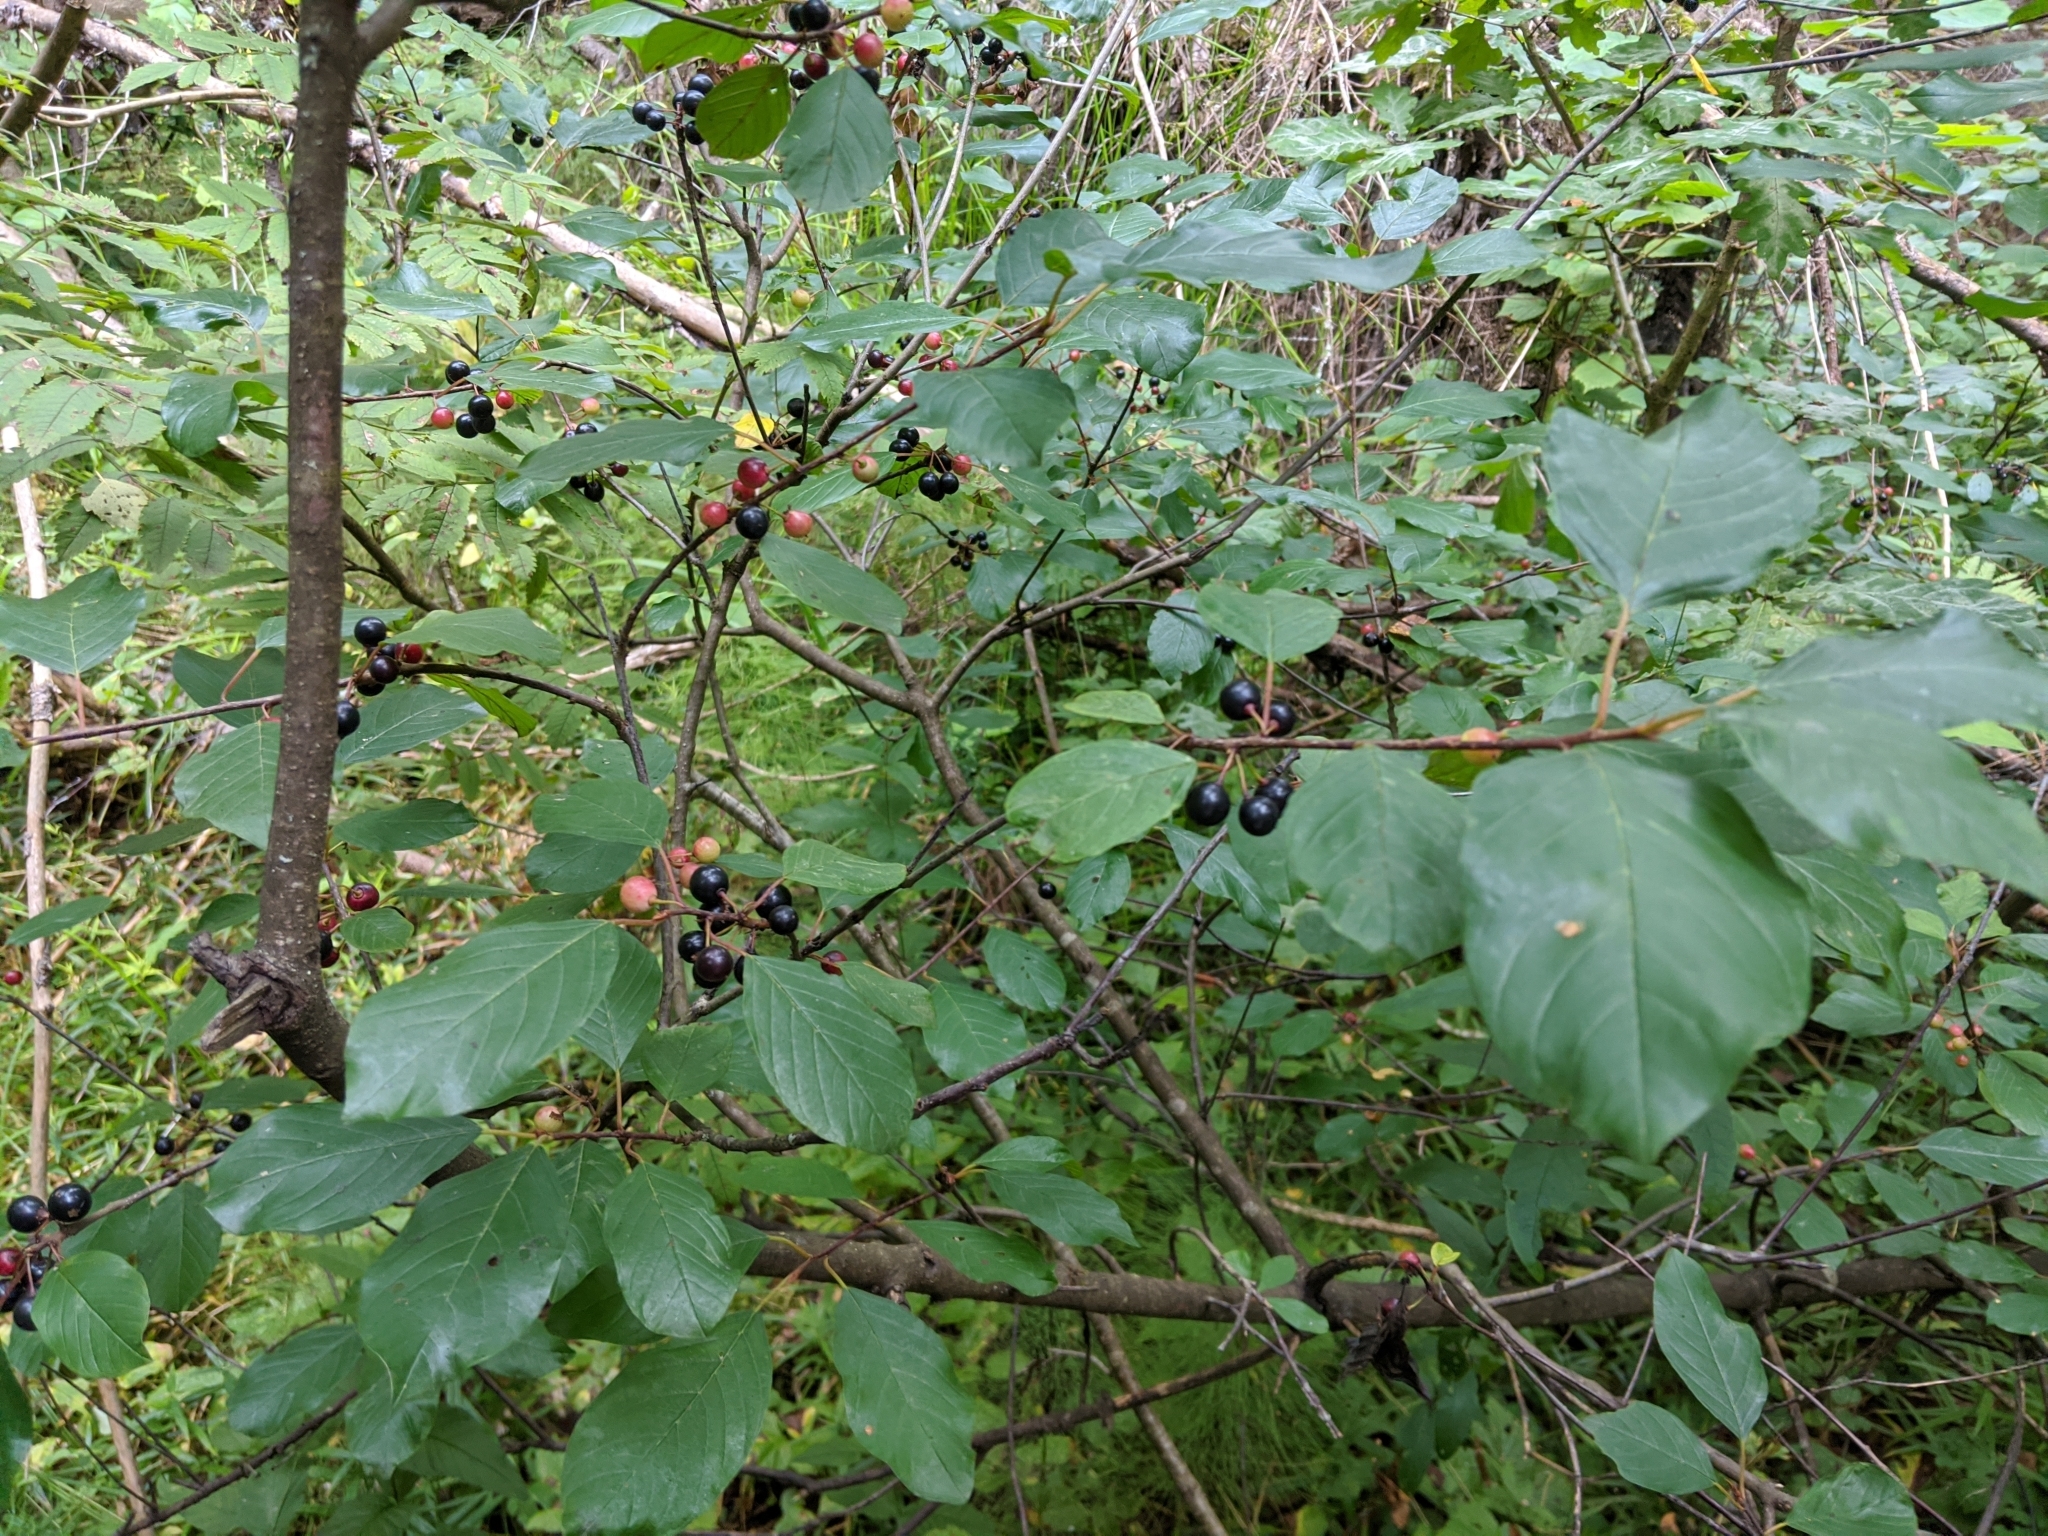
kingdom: Plantae
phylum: Tracheophyta
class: Magnoliopsida
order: Rosales
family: Rhamnaceae
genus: Frangula
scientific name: Frangula alnus
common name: Alder buckthorn
